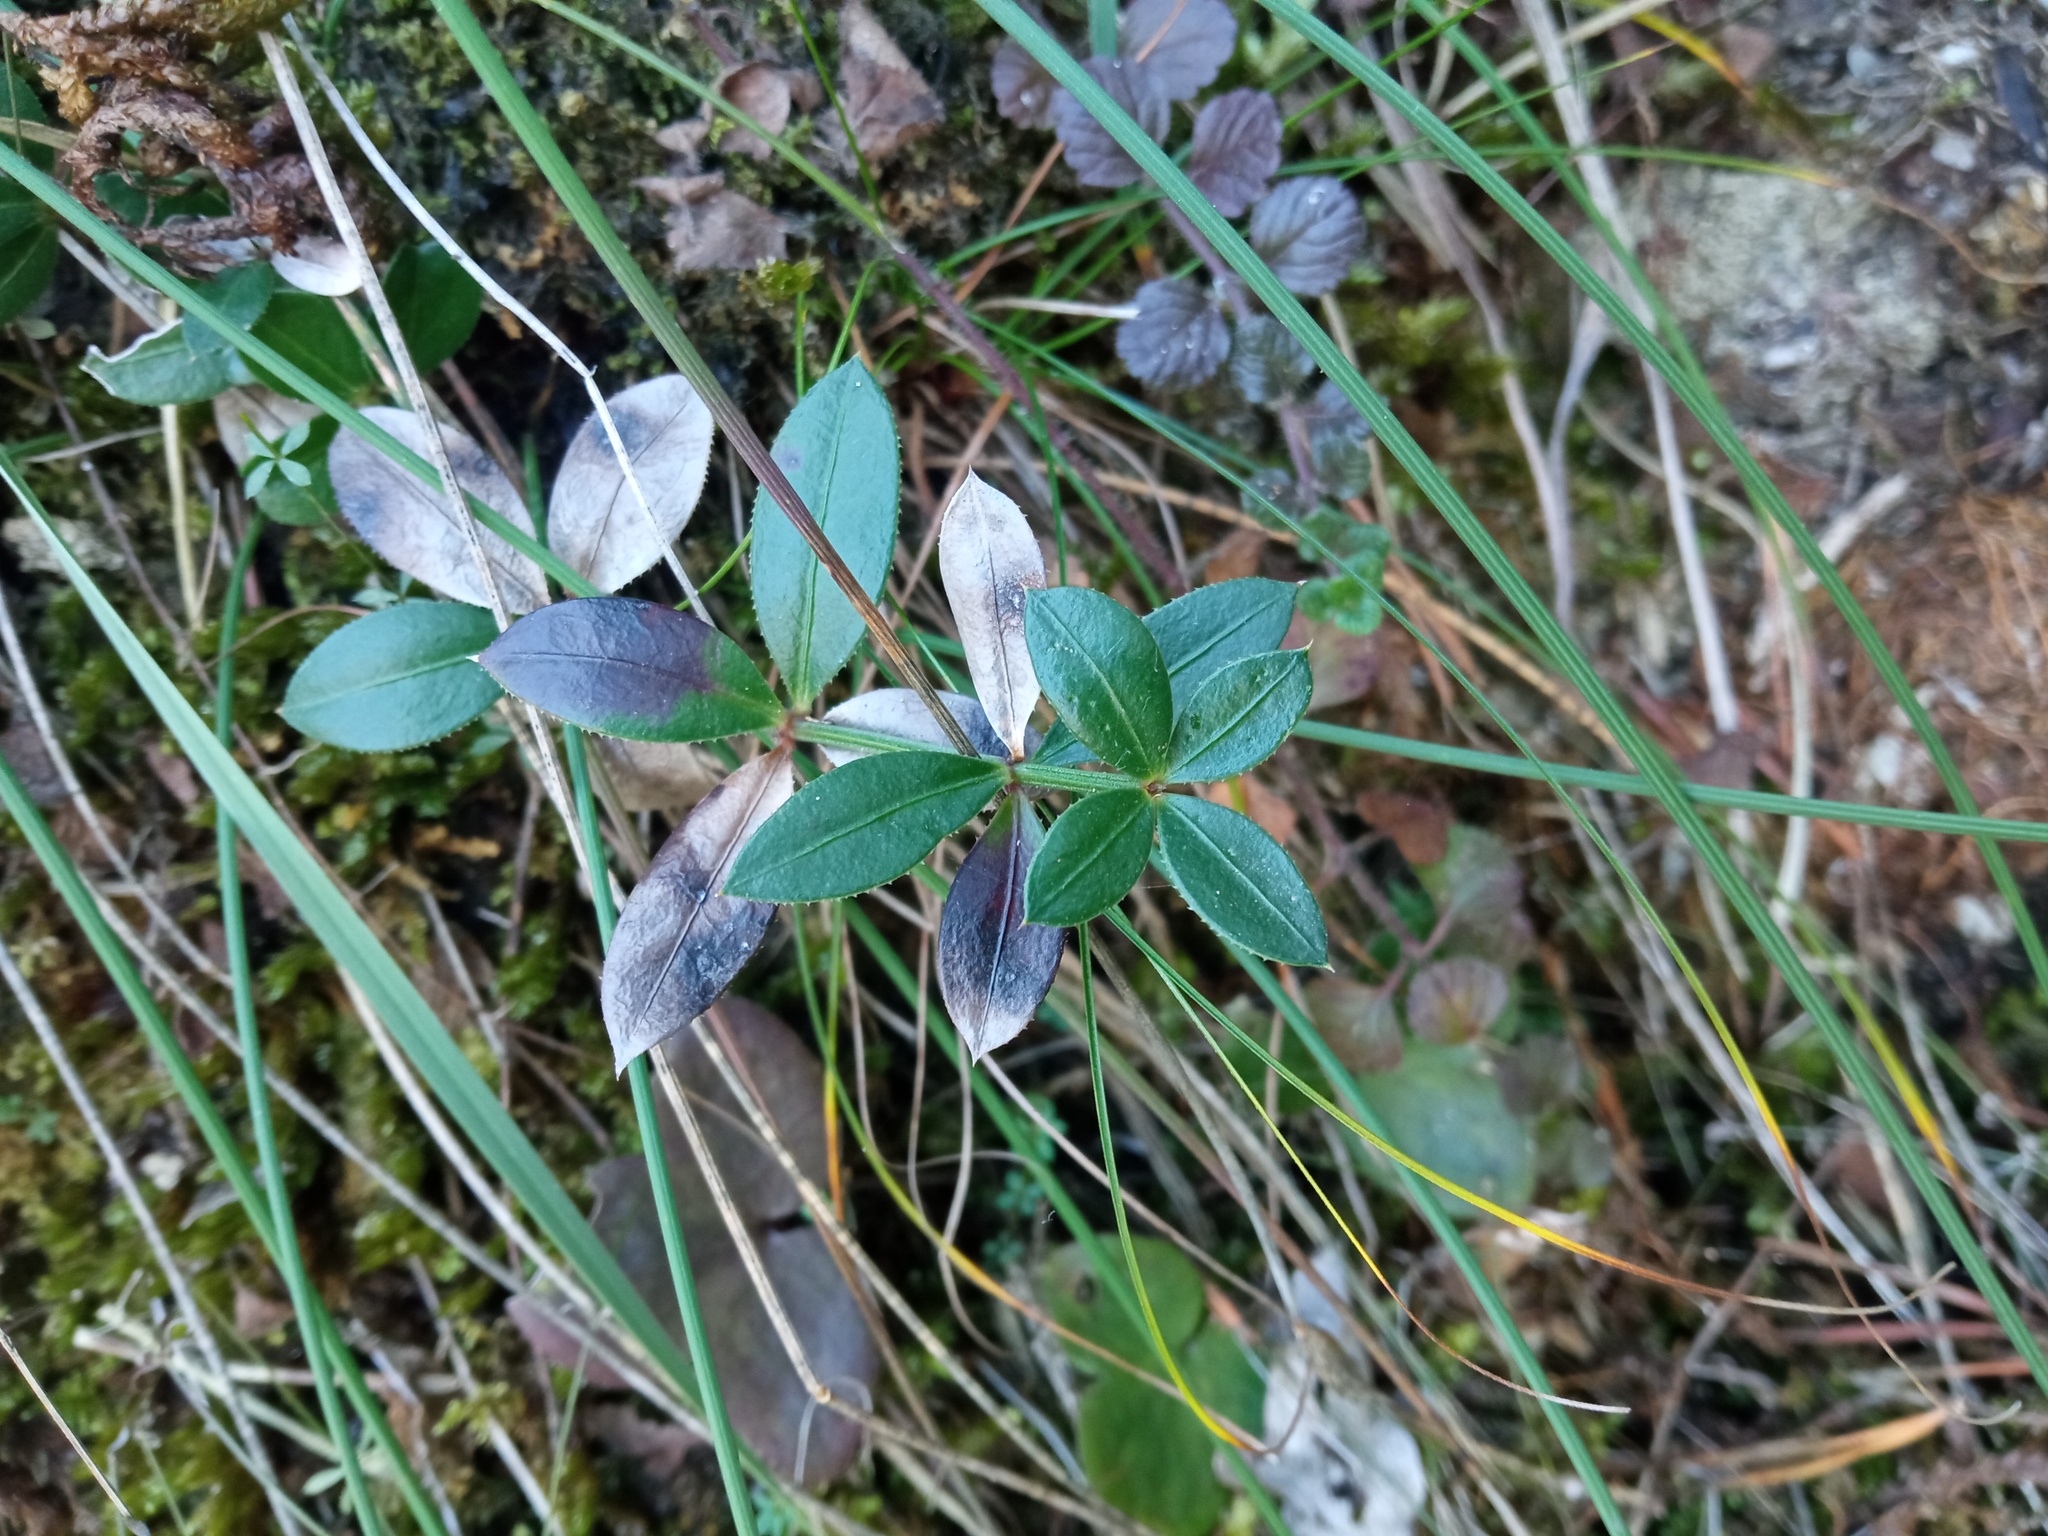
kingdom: Plantae
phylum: Tracheophyta
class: Magnoliopsida
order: Gentianales
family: Rubiaceae
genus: Rubia
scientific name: Rubia peregrina
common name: Wild madder
